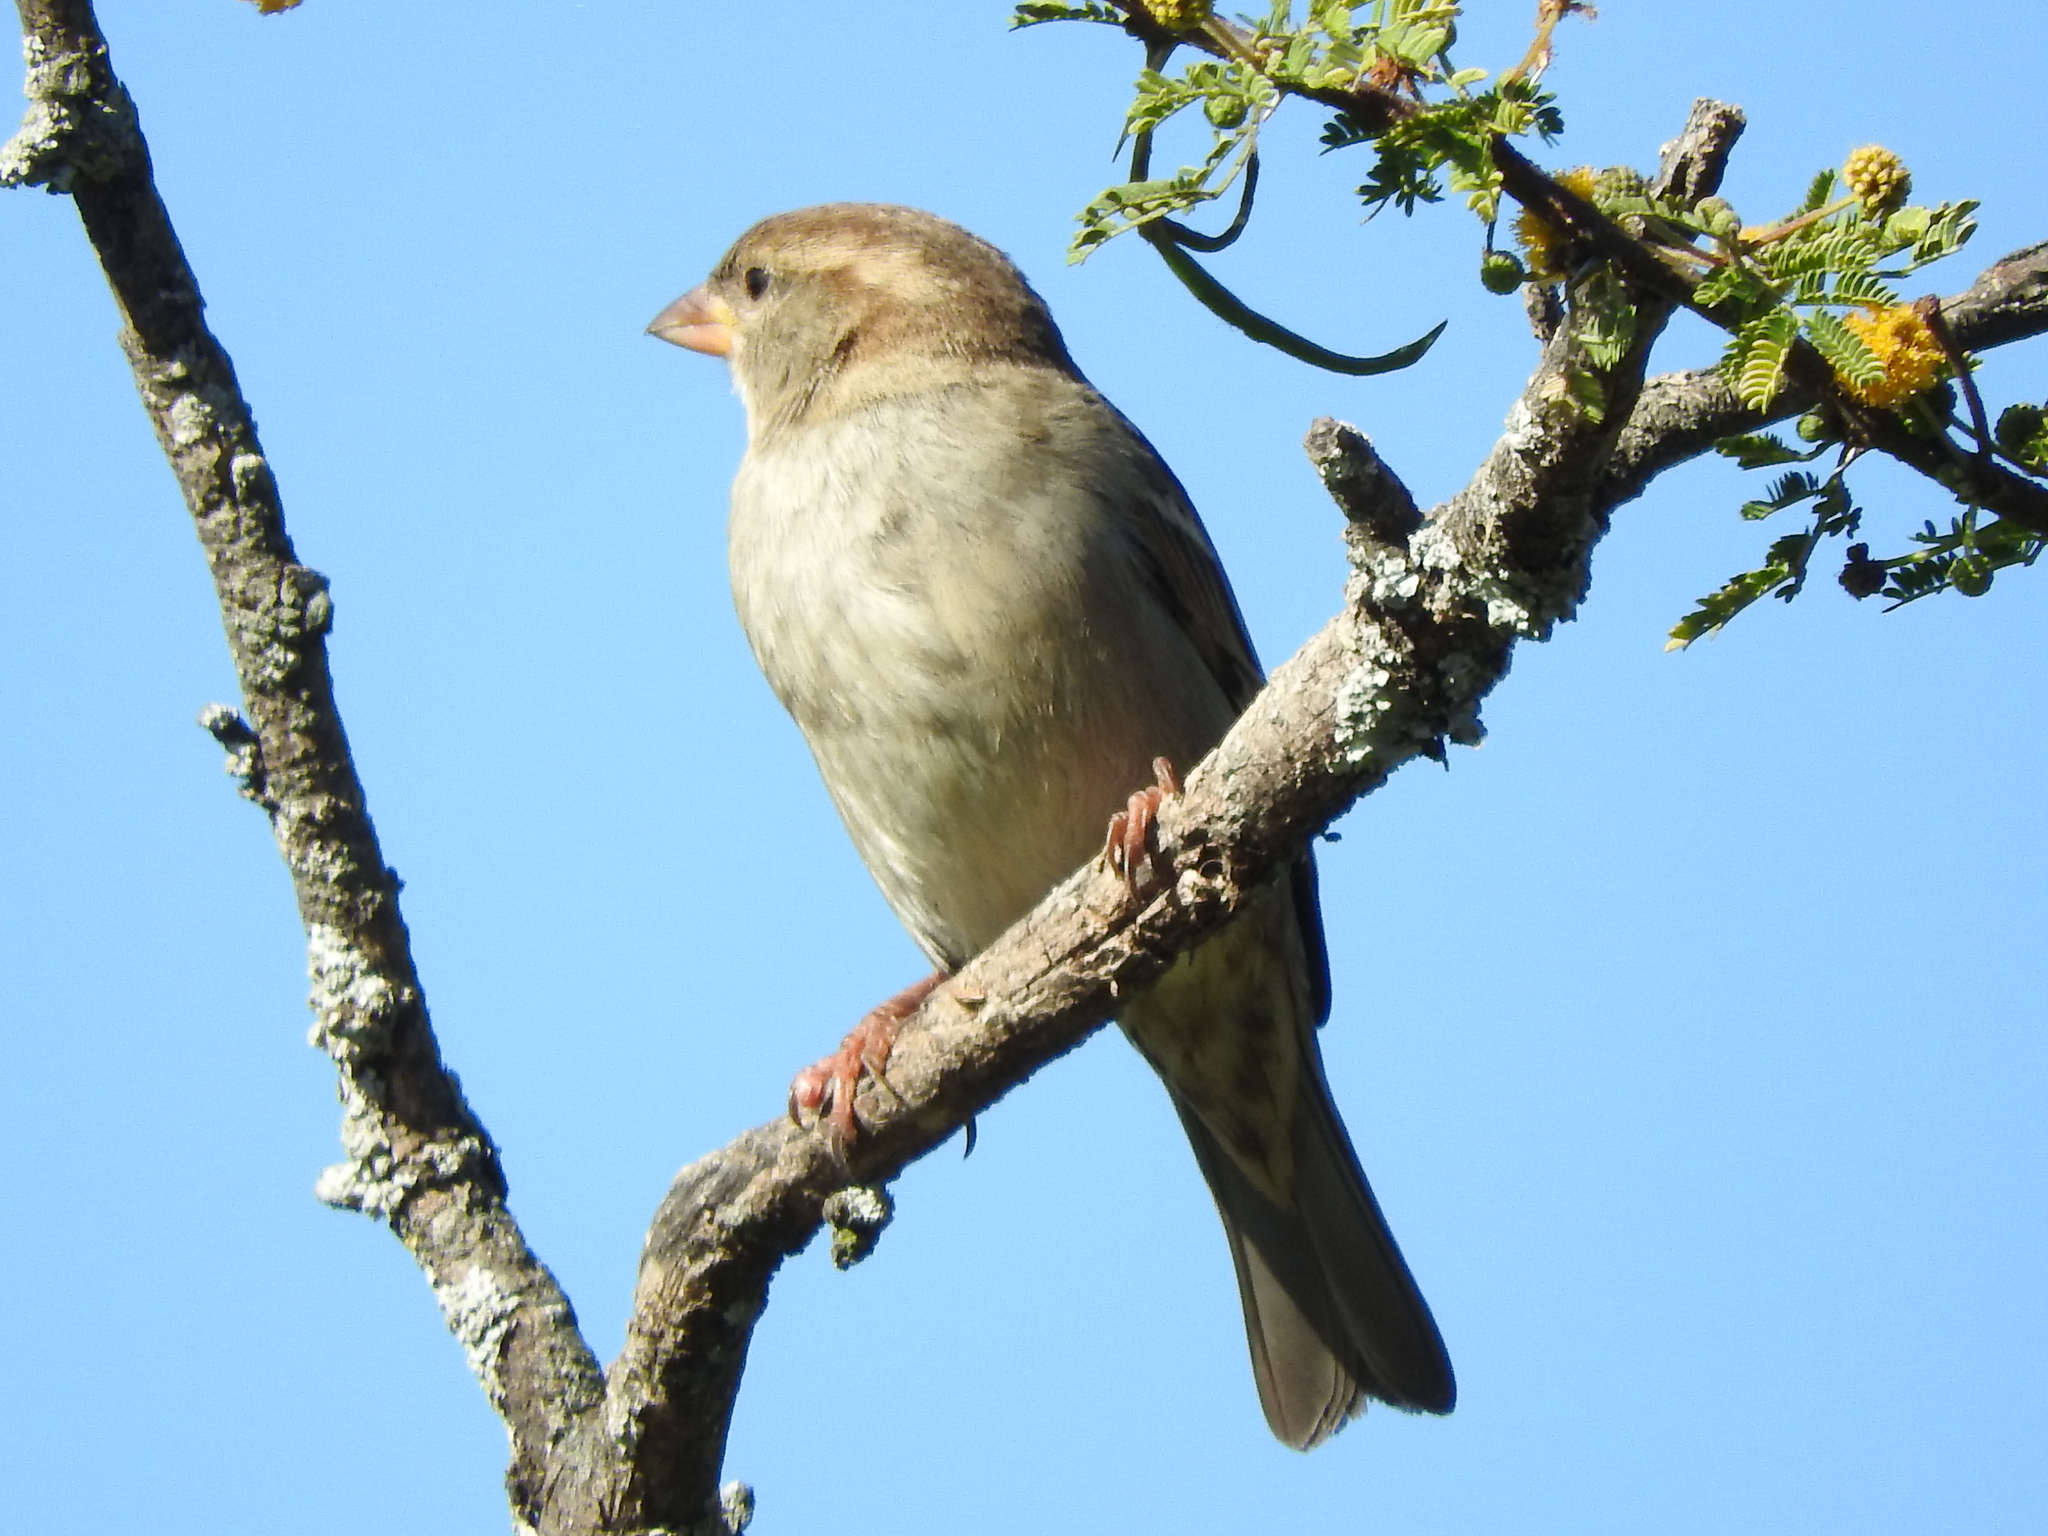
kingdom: Animalia
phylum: Chordata
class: Aves
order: Passeriformes
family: Passeridae
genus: Passer
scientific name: Passer domesticus
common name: House sparrow
